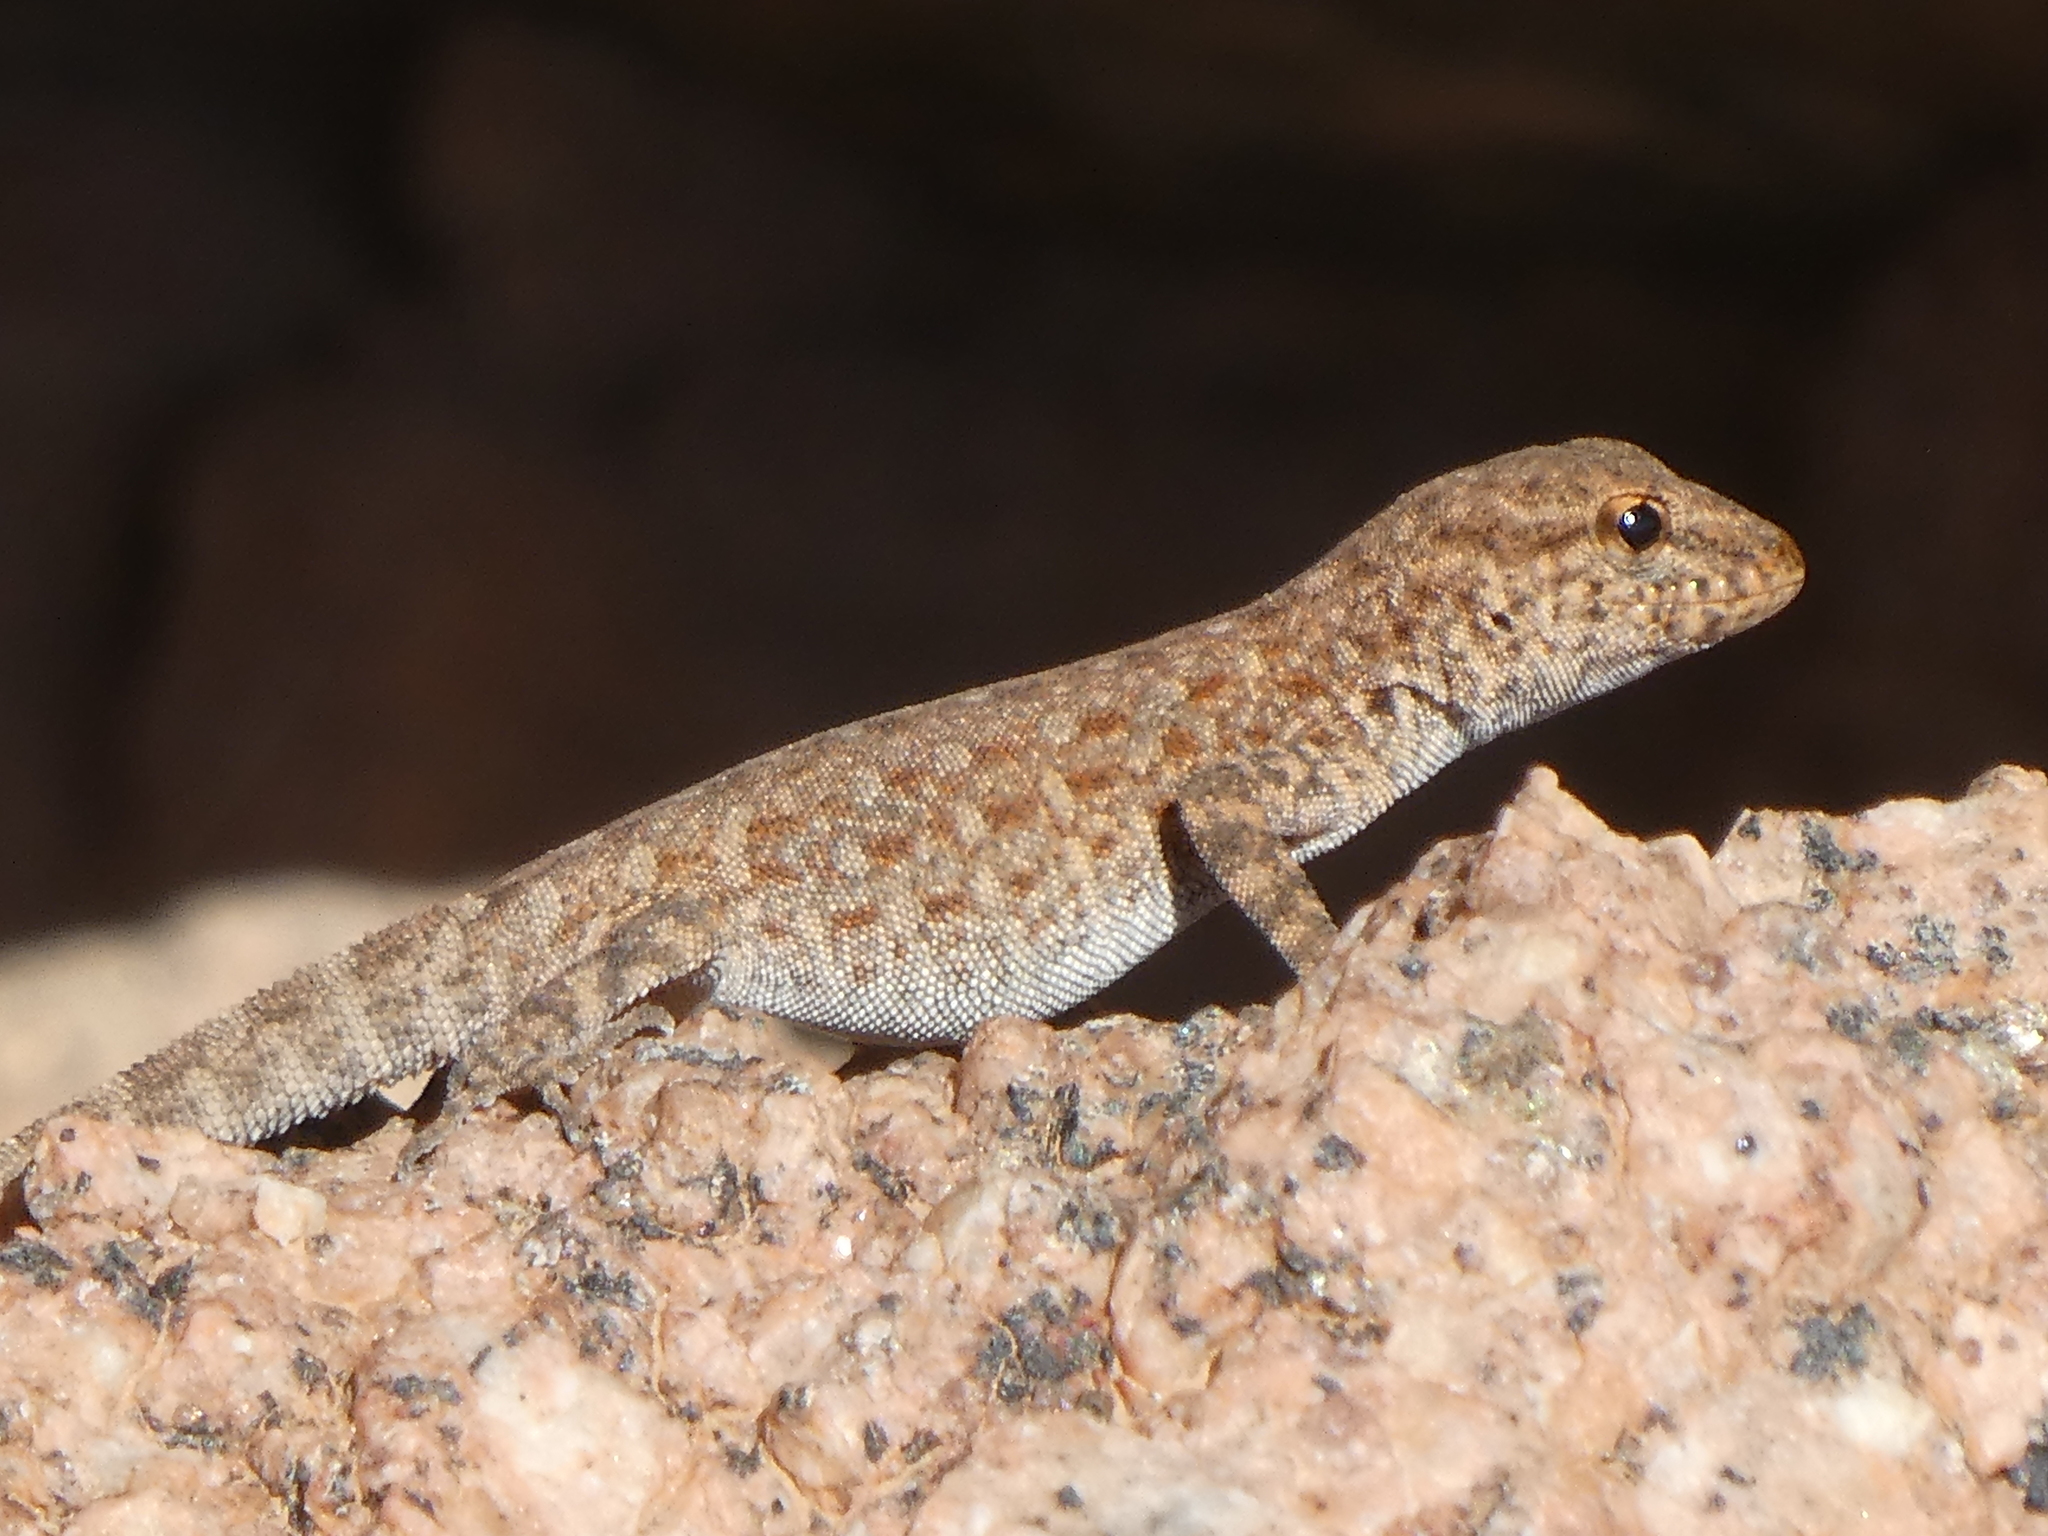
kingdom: Animalia
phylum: Chordata
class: Squamata
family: Sphaerodactylidae
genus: Pristurus
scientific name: Pristurus rupestris
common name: Blanford’s semaphore gecko
